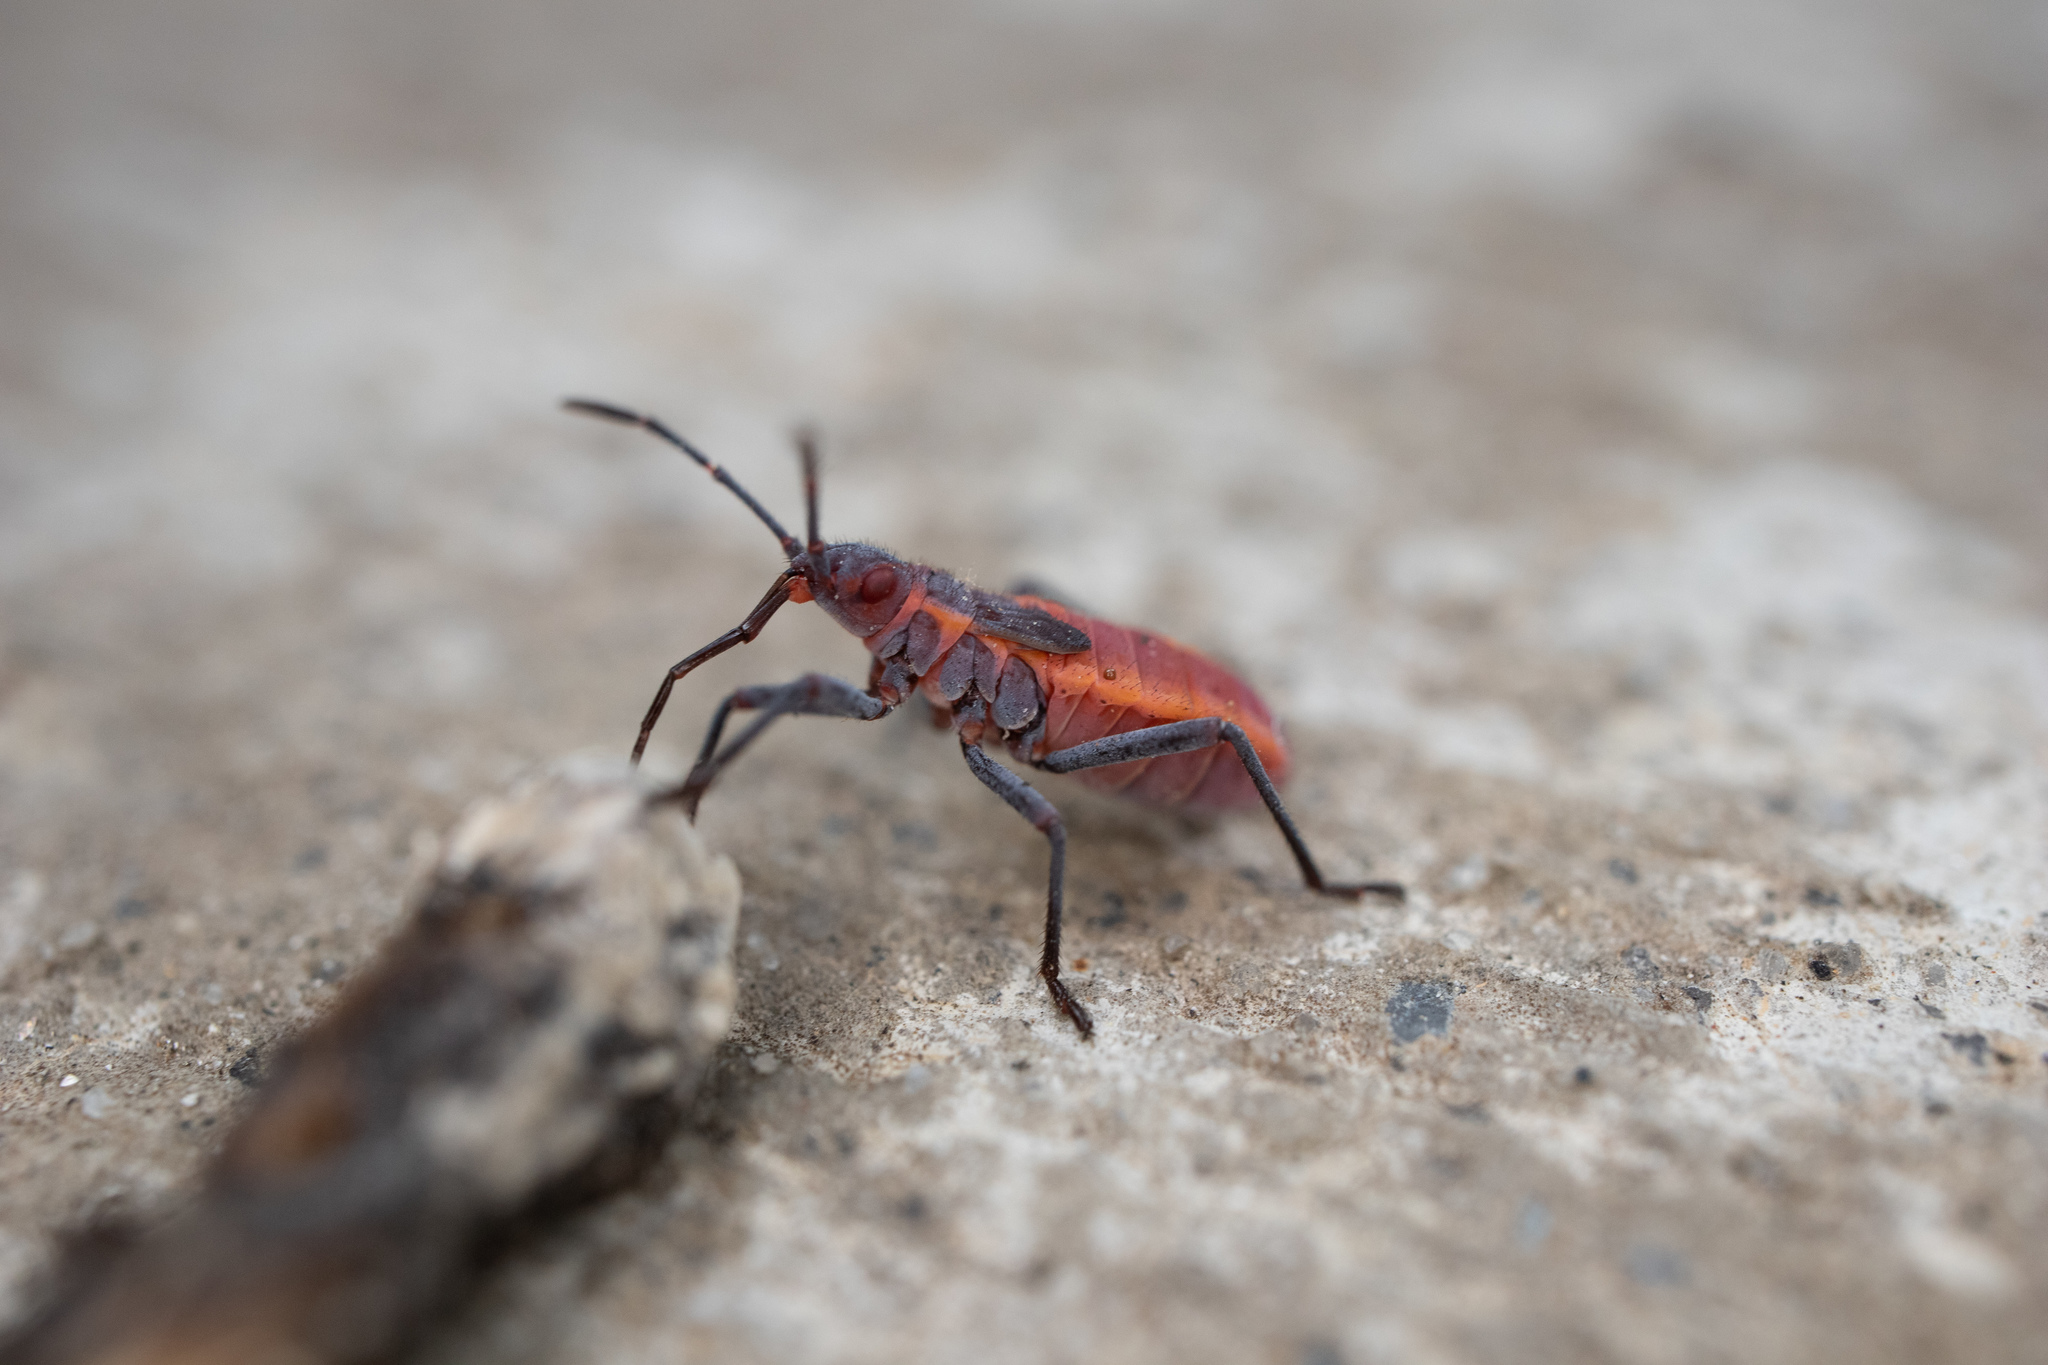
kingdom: Animalia
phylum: Arthropoda
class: Insecta
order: Hemiptera
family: Rhopalidae
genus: Boisea
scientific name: Boisea trivittata
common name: Boxelder bug
